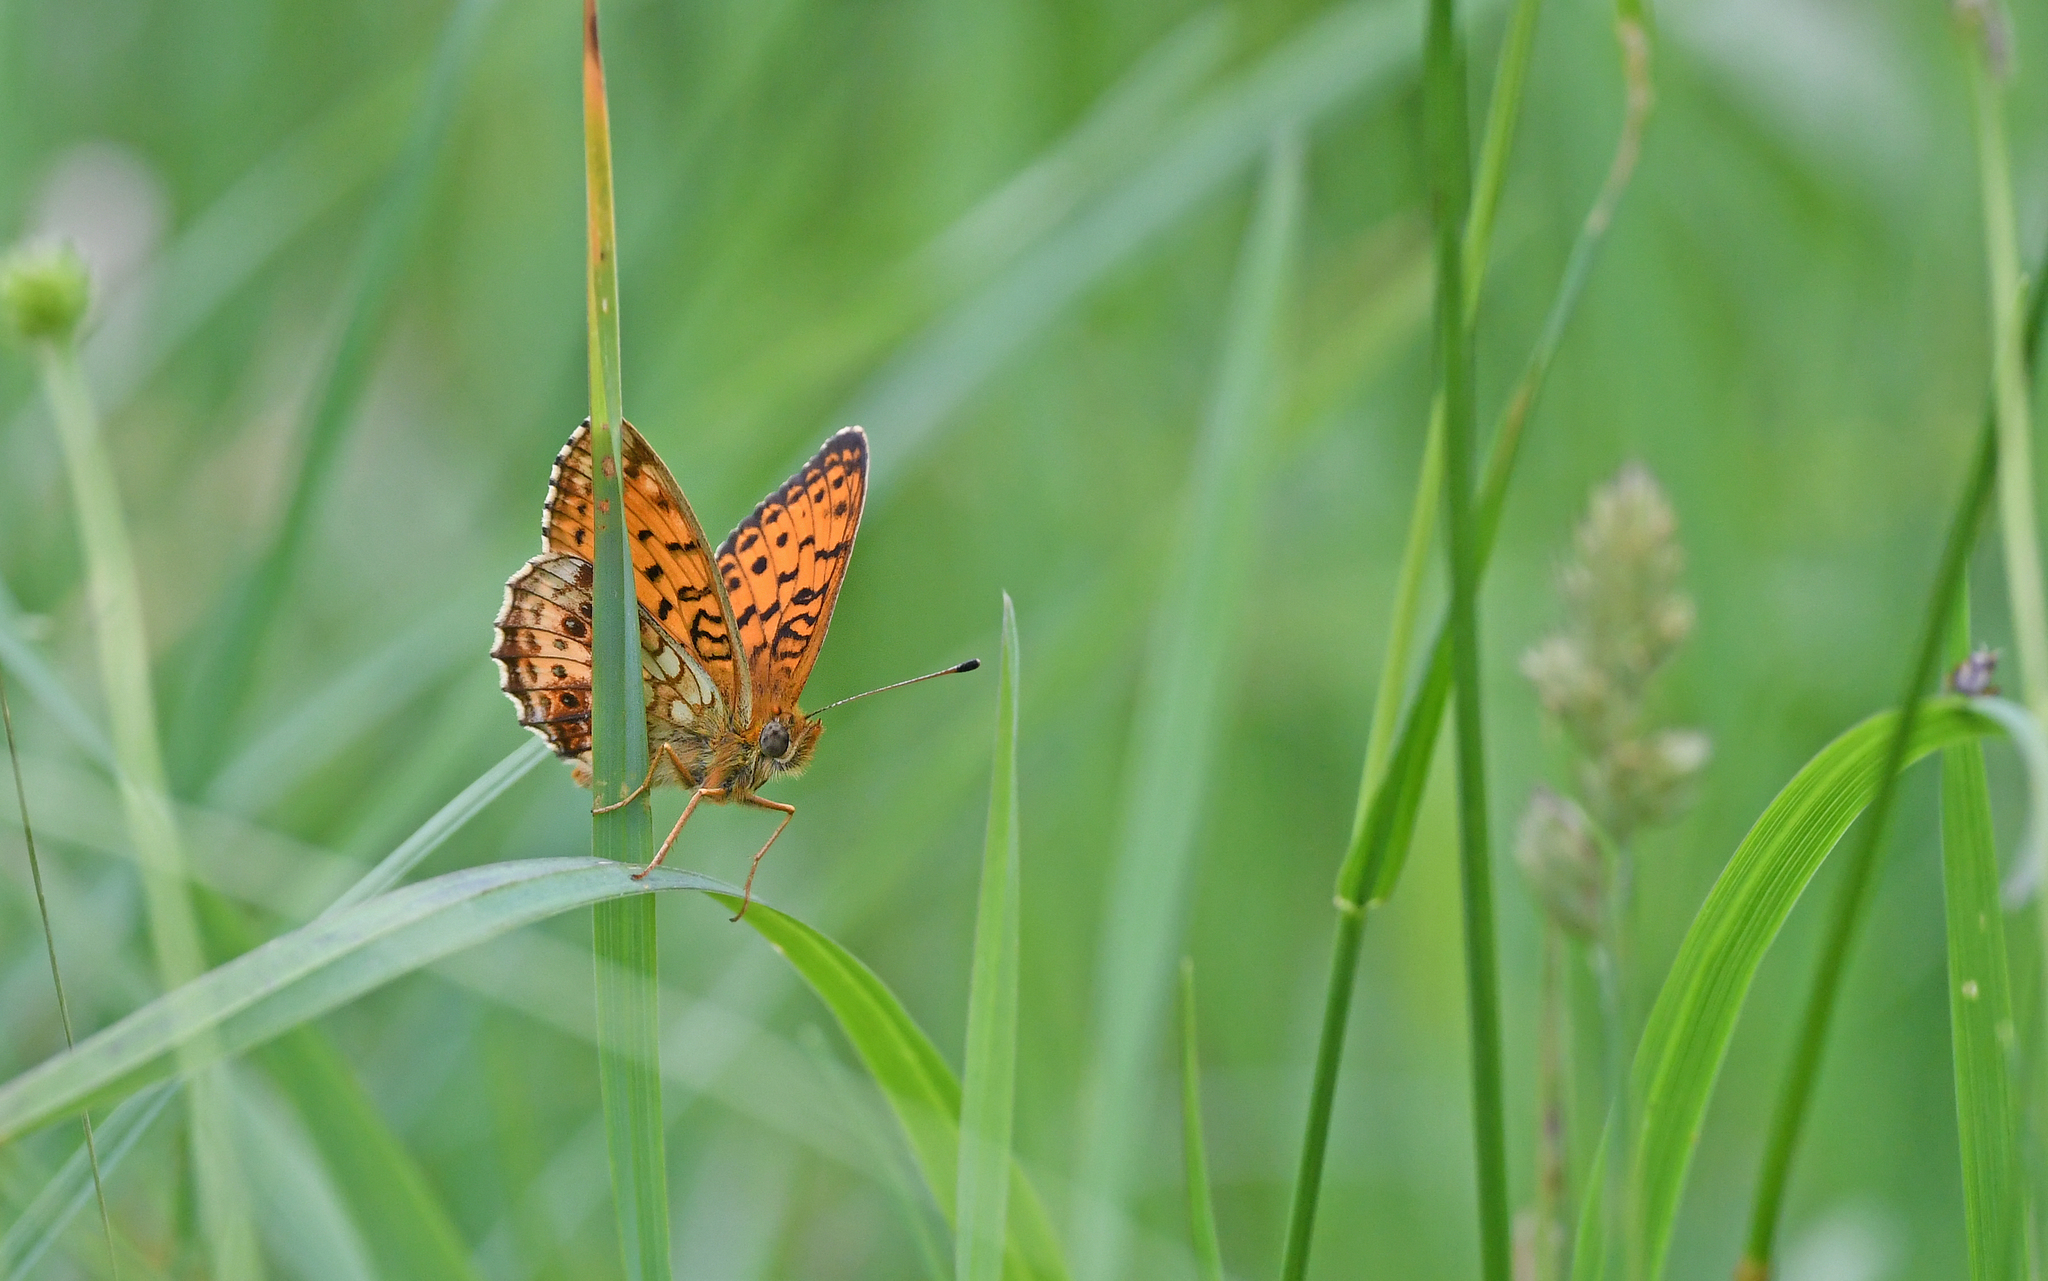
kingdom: Animalia
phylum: Arthropoda
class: Insecta
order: Lepidoptera
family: Nymphalidae
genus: Brenthis
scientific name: Brenthis ino
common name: Lesser marbled fritillary
